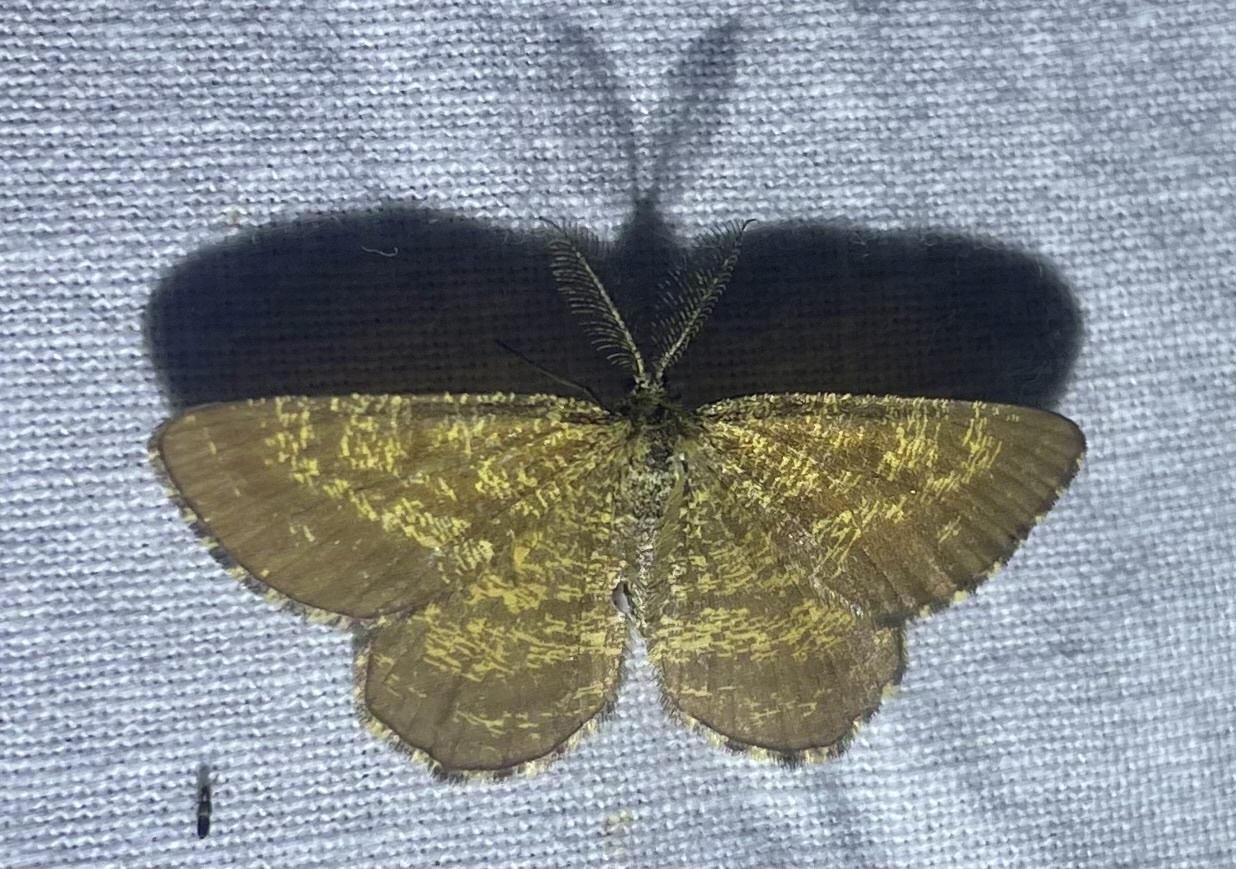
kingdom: Animalia
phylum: Arthropoda
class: Insecta
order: Lepidoptera
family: Geometridae
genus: Ematurga
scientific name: Ematurga atomaria
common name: Common heath
